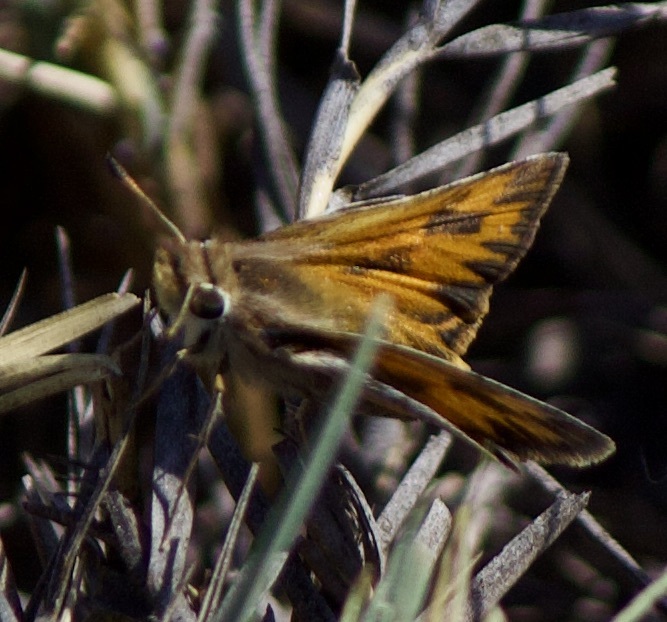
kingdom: Animalia
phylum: Arthropoda
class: Insecta
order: Lepidoptera
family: Hesperiidae
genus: Hylephila
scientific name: Hylephila fasciolata
